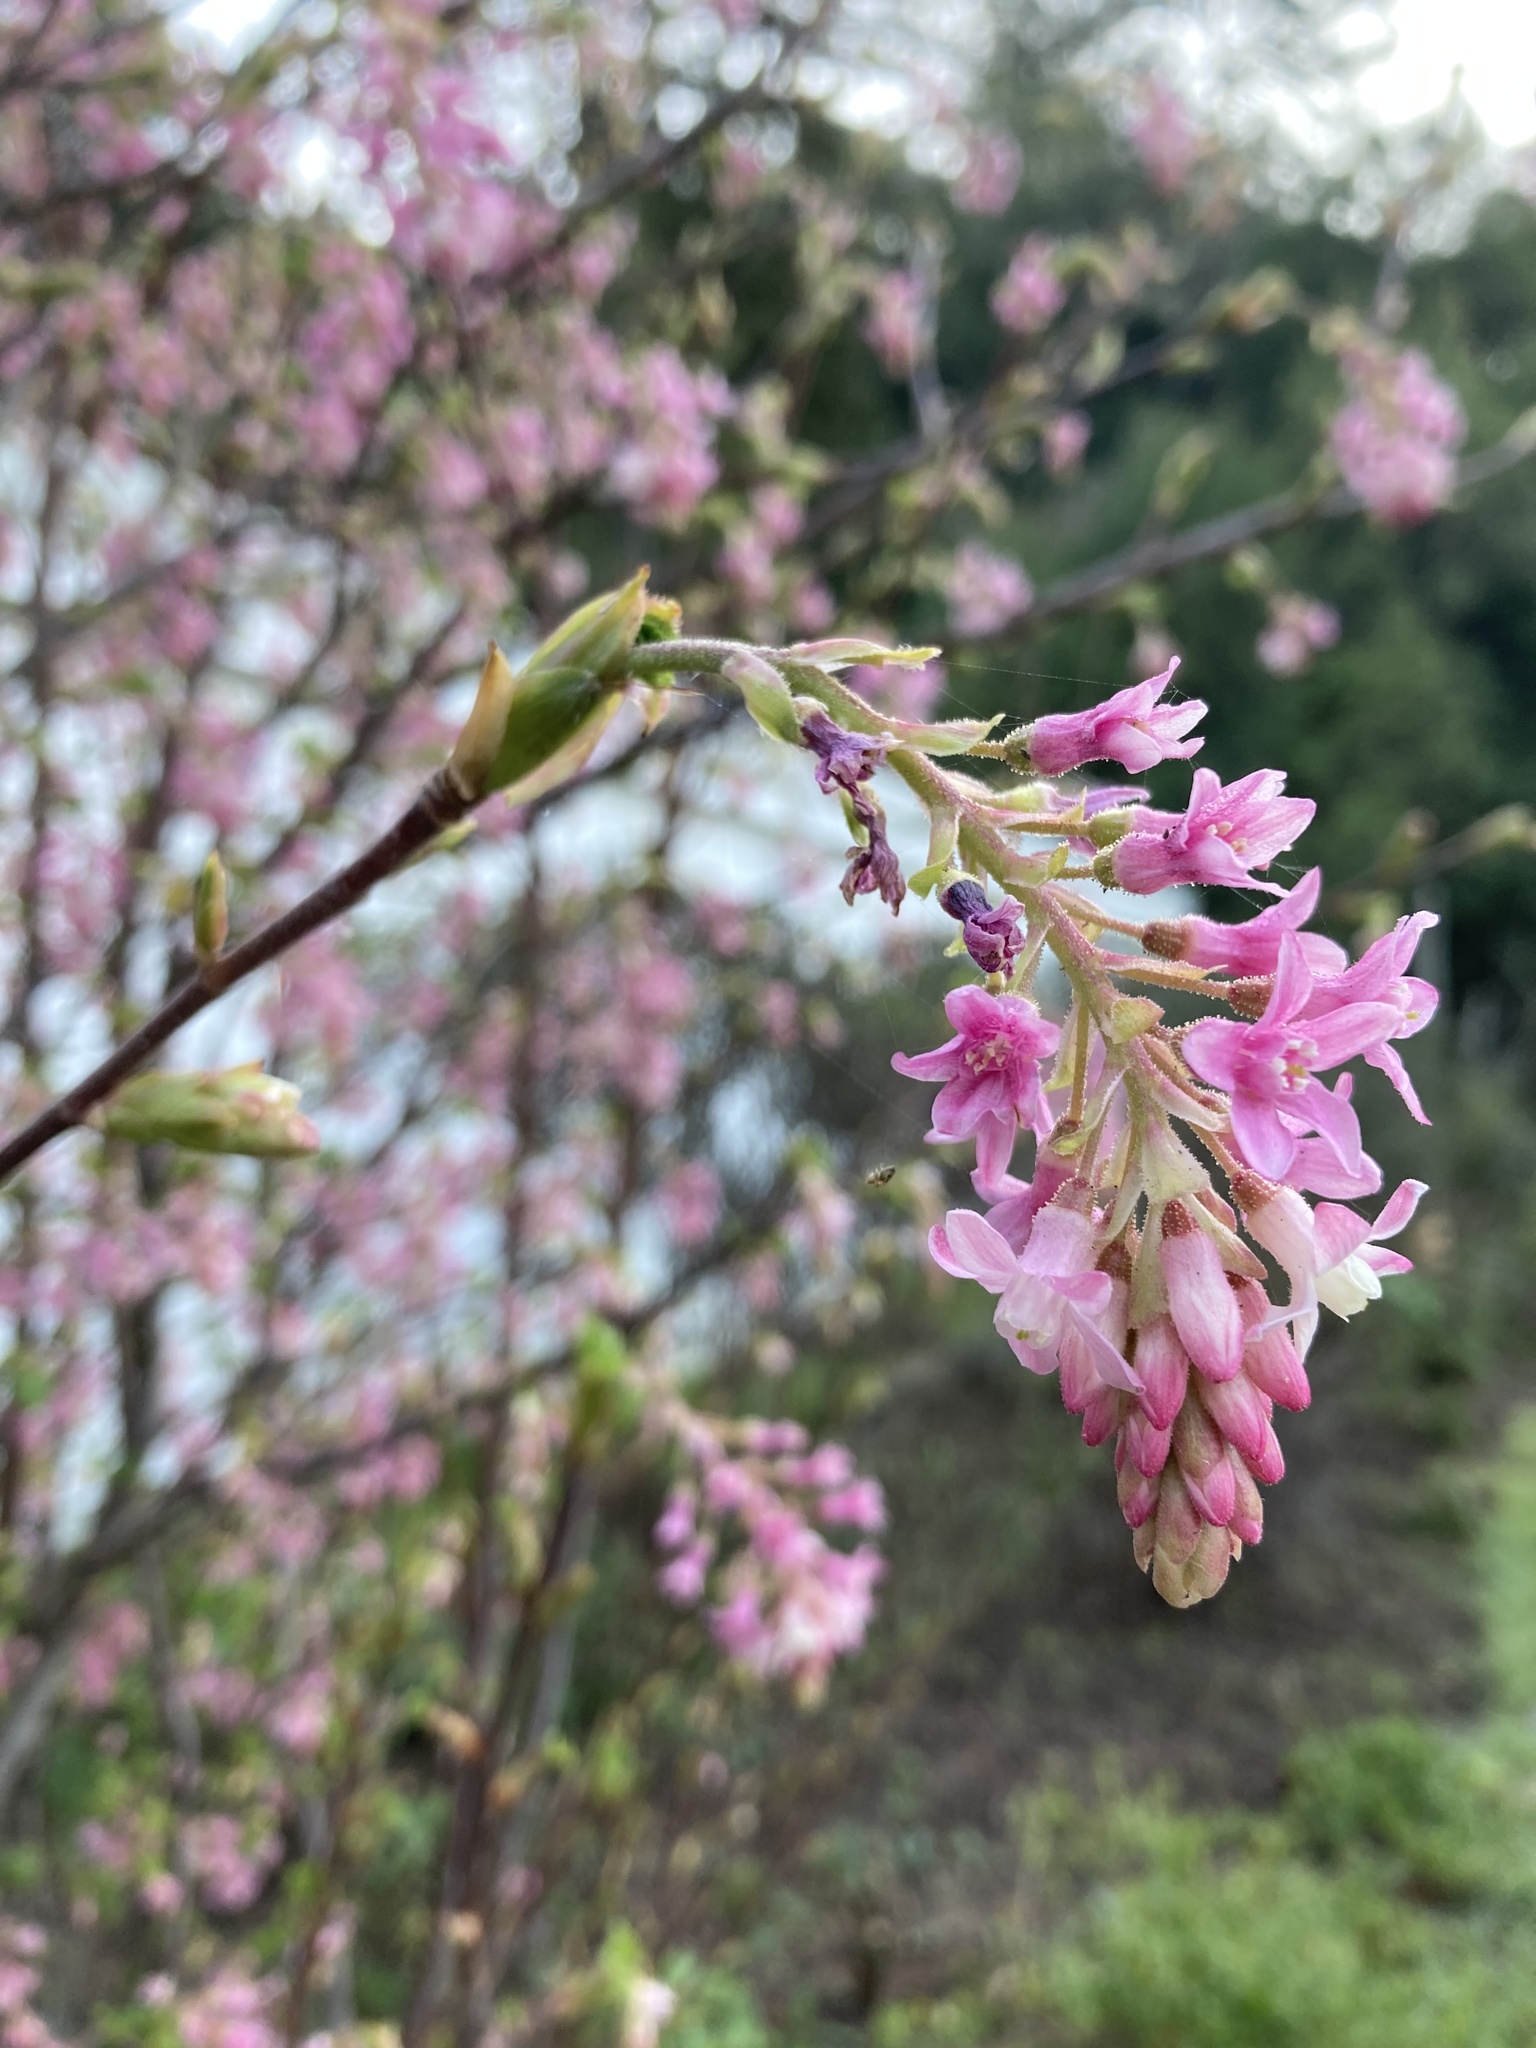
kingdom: Plantae
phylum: Tracheophyta
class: Magnoliopsida
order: Saxifragales
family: Grossulariaceae
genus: Ribes
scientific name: Ribes sanguineum
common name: Flowering currant
